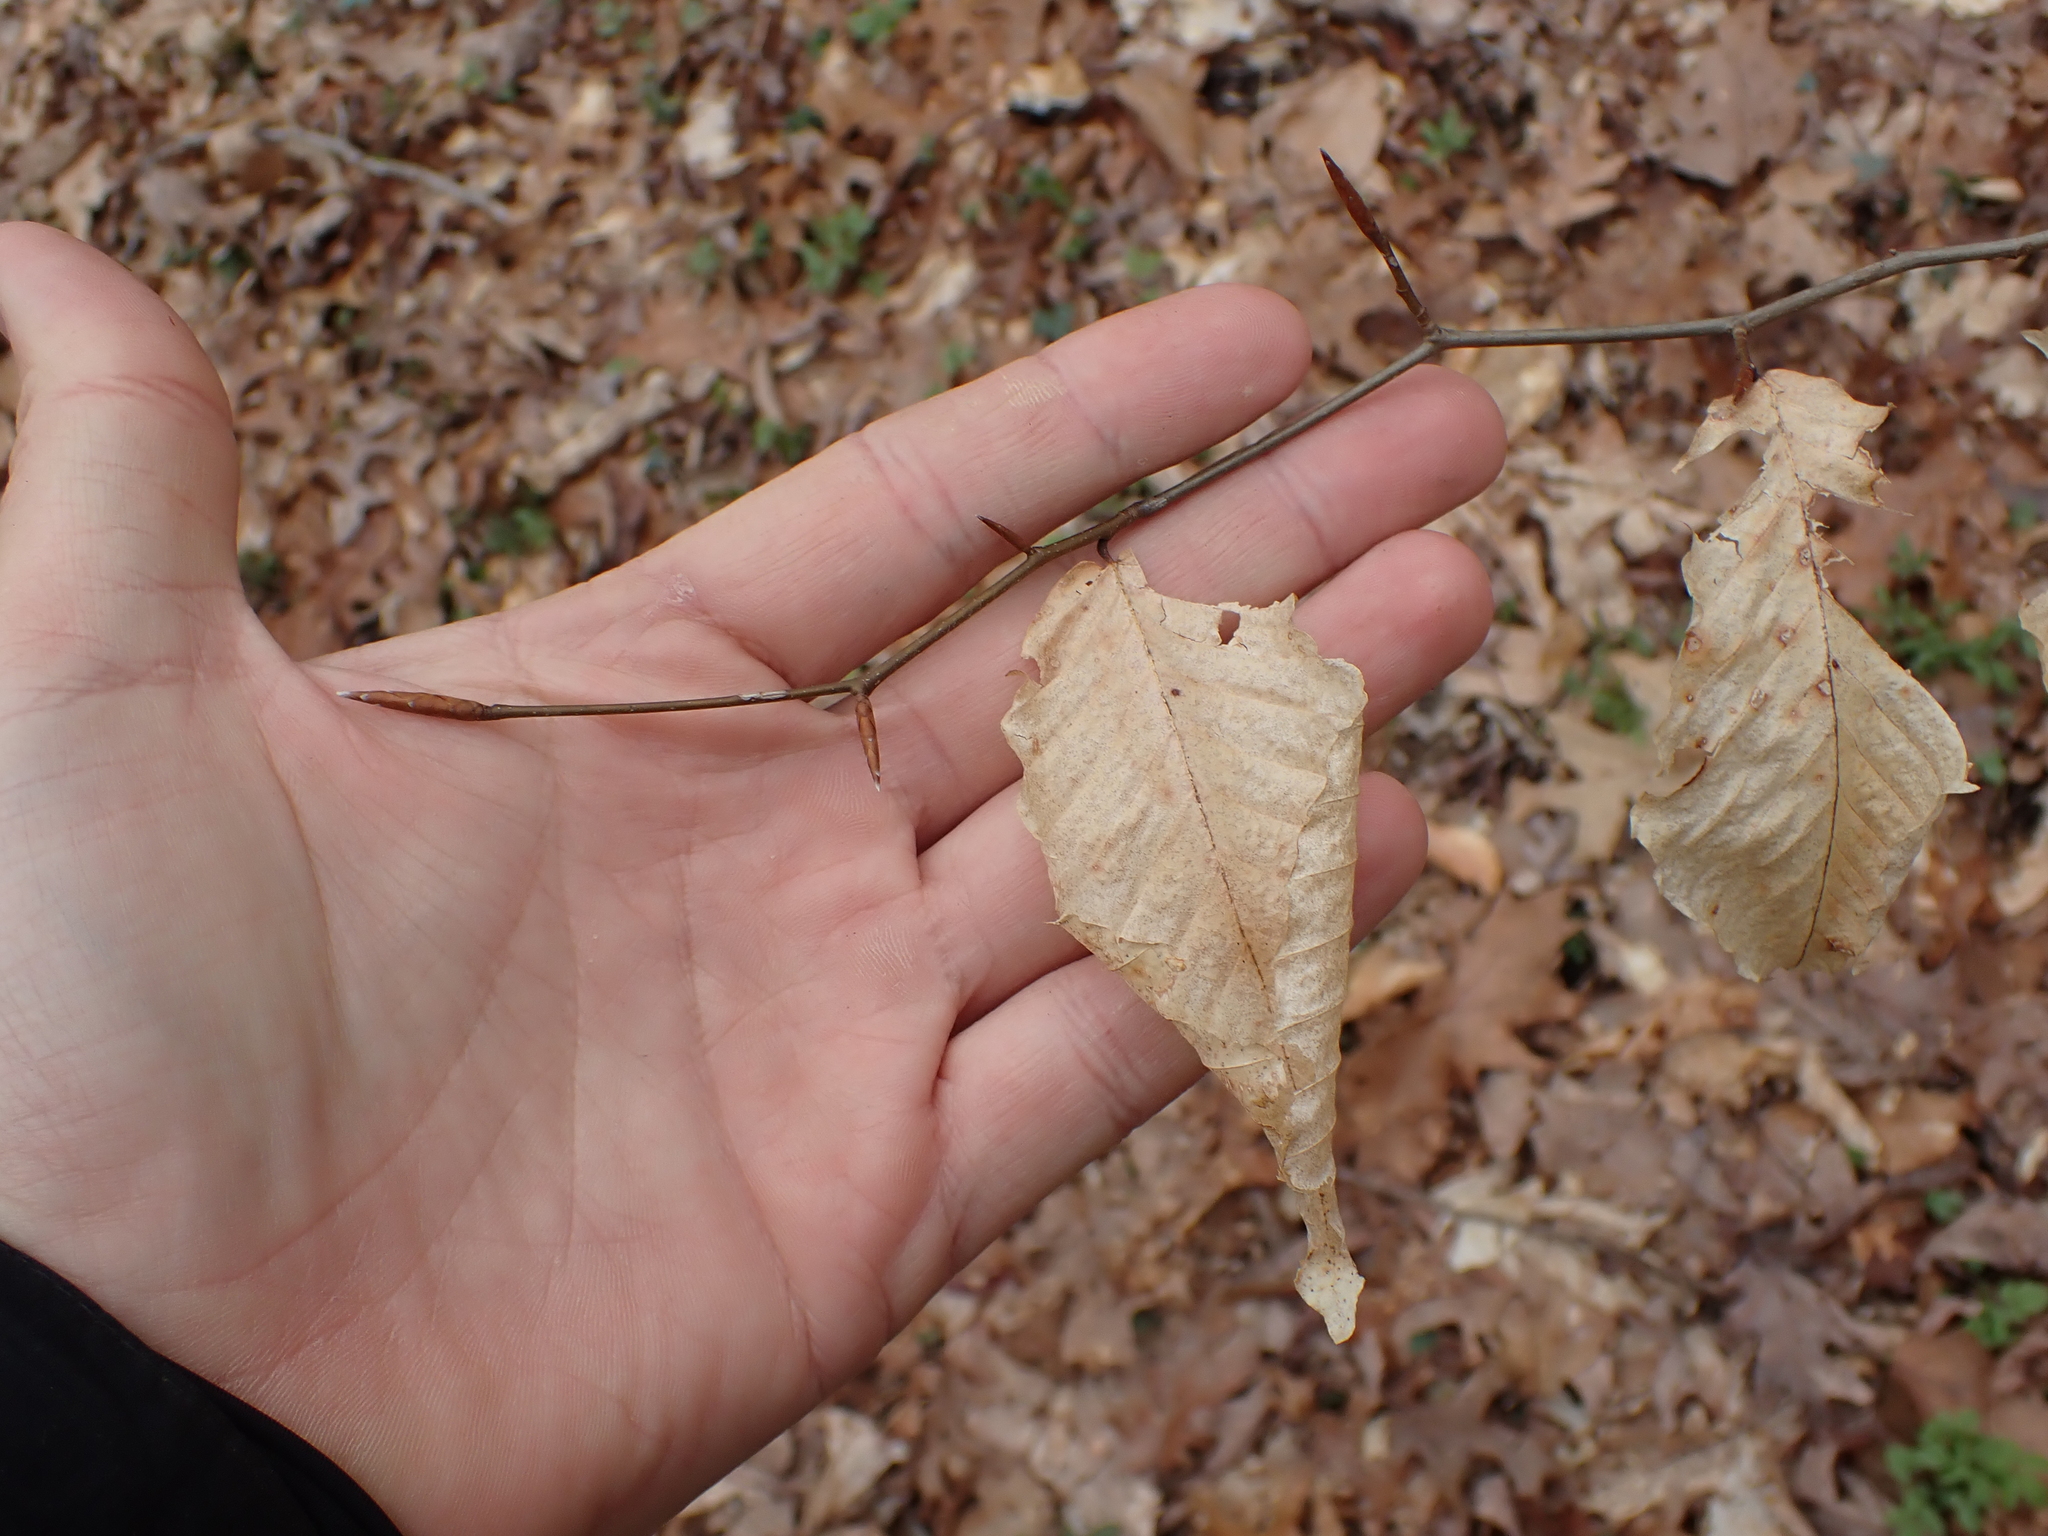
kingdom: Plantae
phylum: Tracheophyta
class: Magnoliopsida
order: Fagales
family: Fagaceae
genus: Fagus
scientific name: Fagus grandifolia
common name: American beech
